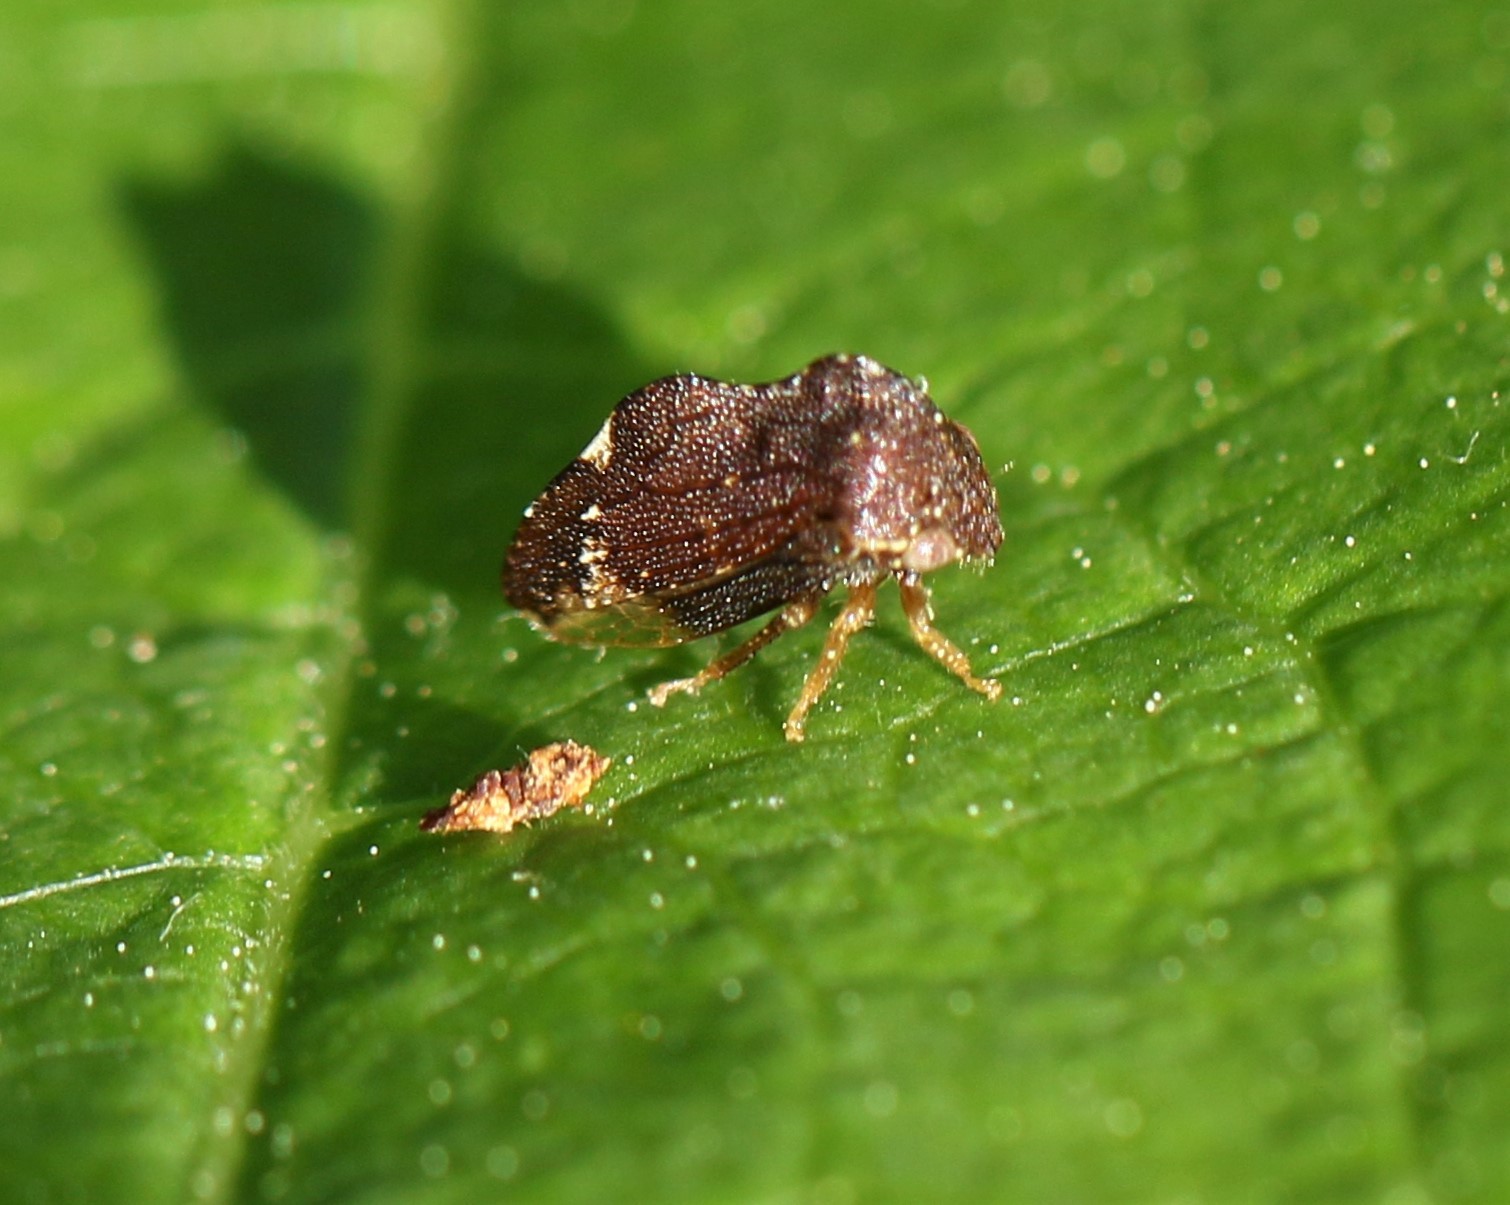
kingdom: Animalia
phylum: Arthropoda
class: Insecta
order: Hemiptera
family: Membracidae
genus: Publilia
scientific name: Publilia concava
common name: Aster treehopper
